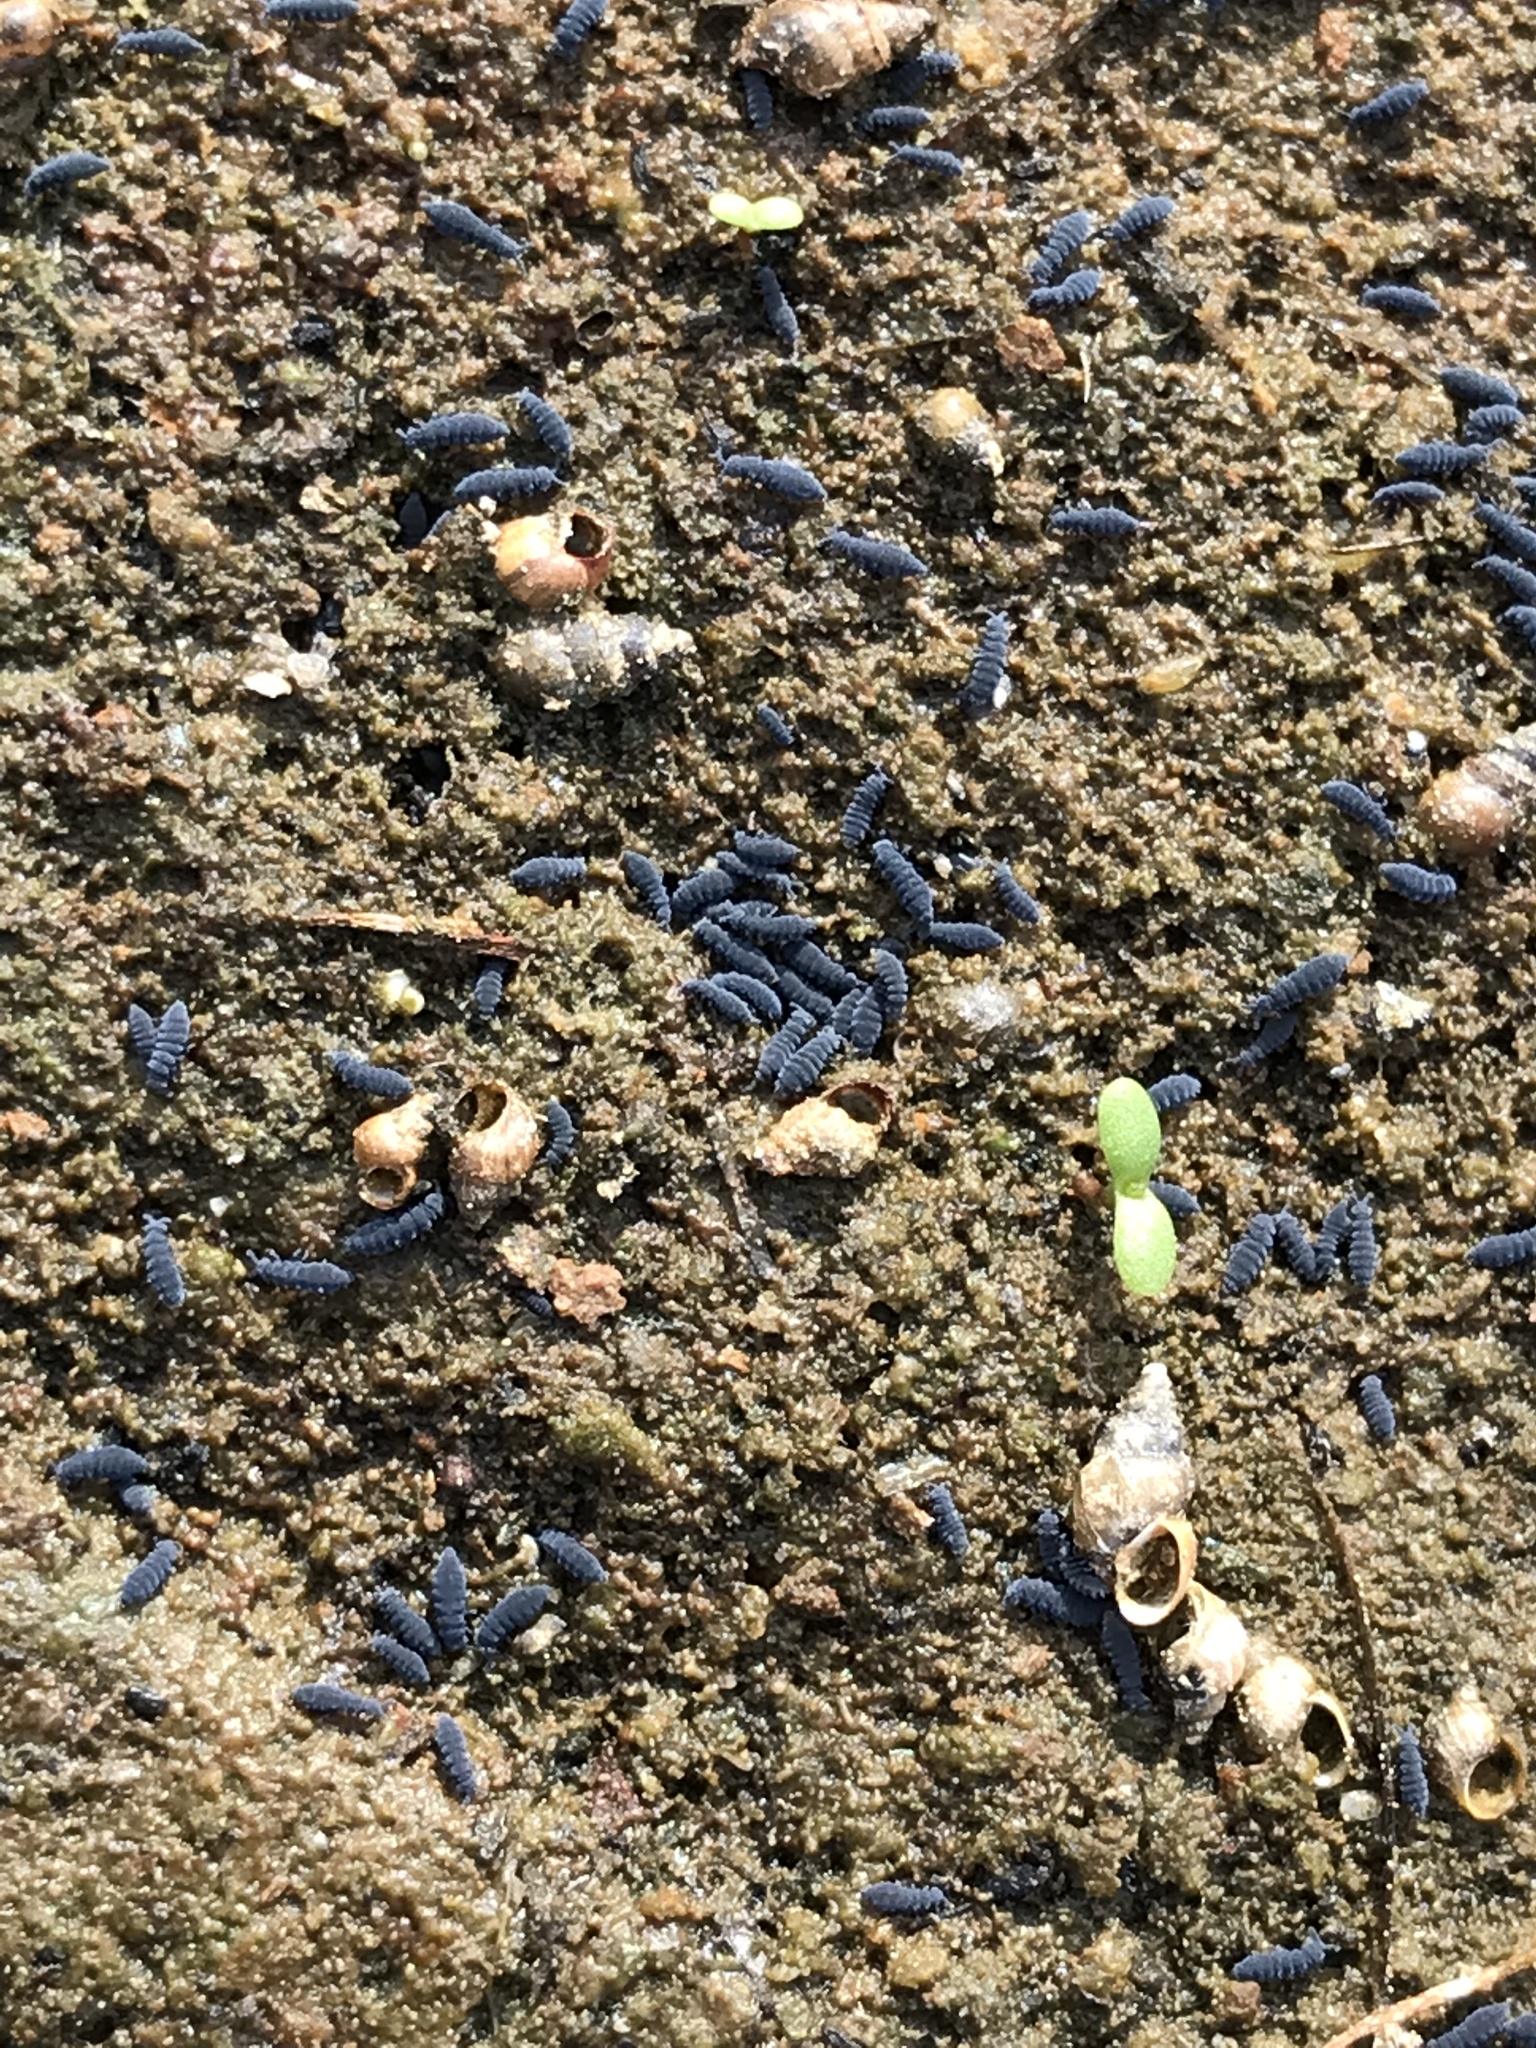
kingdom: Animalia
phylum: Mollusca
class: Gastropoda
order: Littorinimorpha
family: Tateidae
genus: Potamopyrgus
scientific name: Potamopyrgus antipodarum
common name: Jenkins' spire snail
